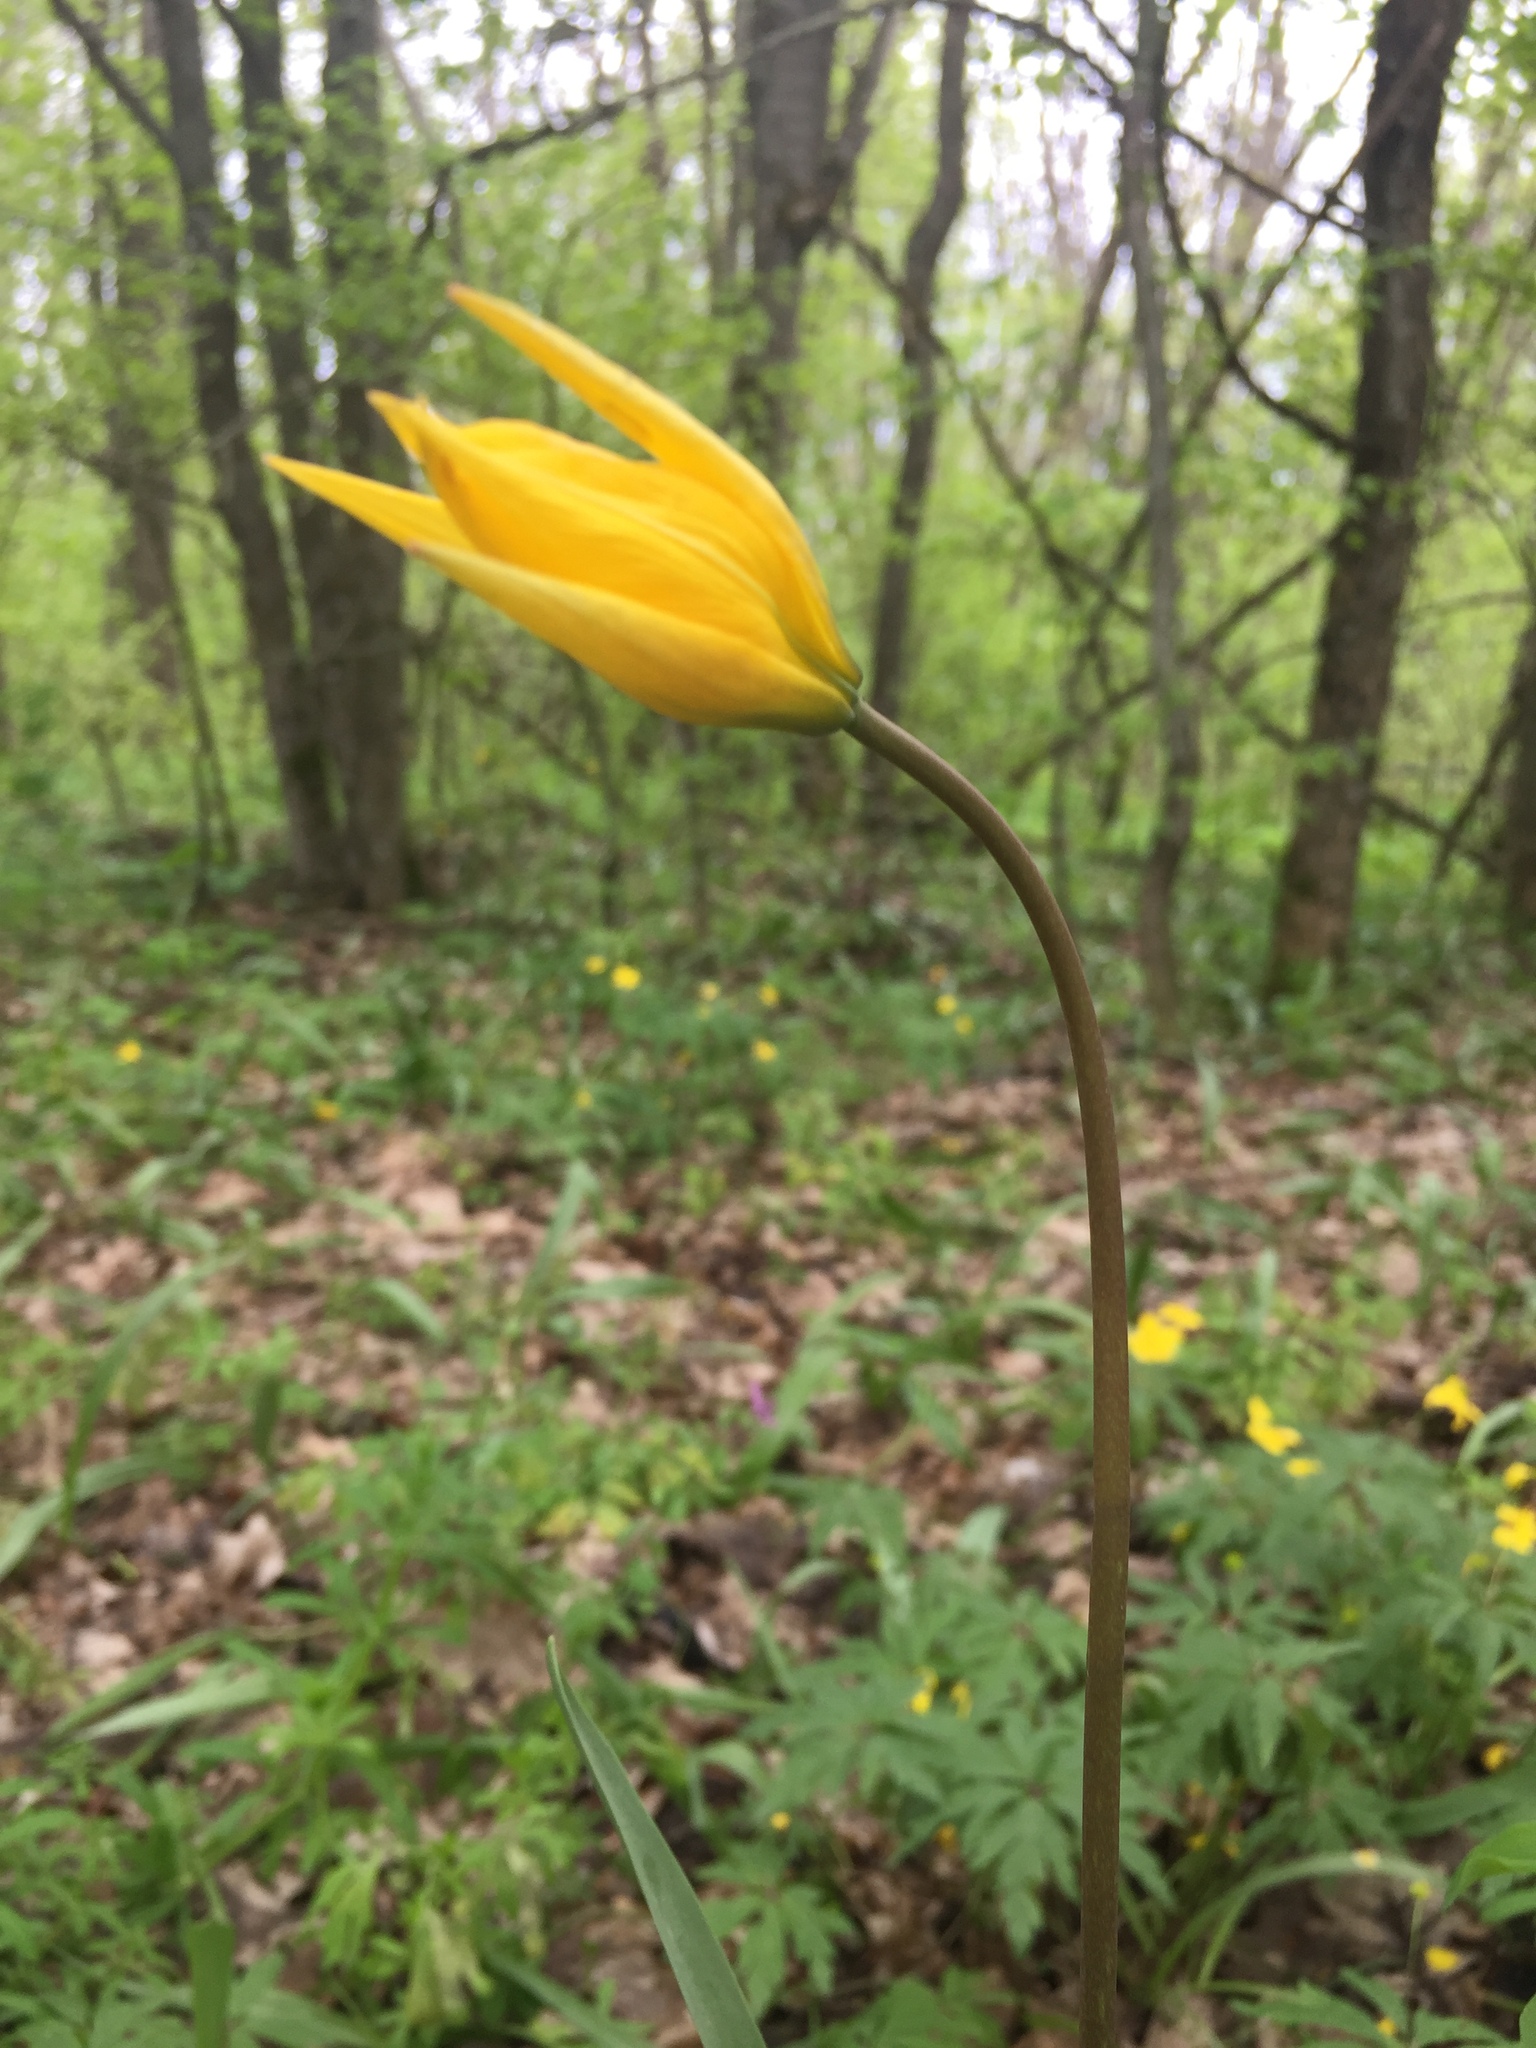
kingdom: Plantae
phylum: Tracheophyta
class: Liliopsida
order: Liliales
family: Liliaceae
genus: Tulipa
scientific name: Tulipa sylvestris
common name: Wild tulip
